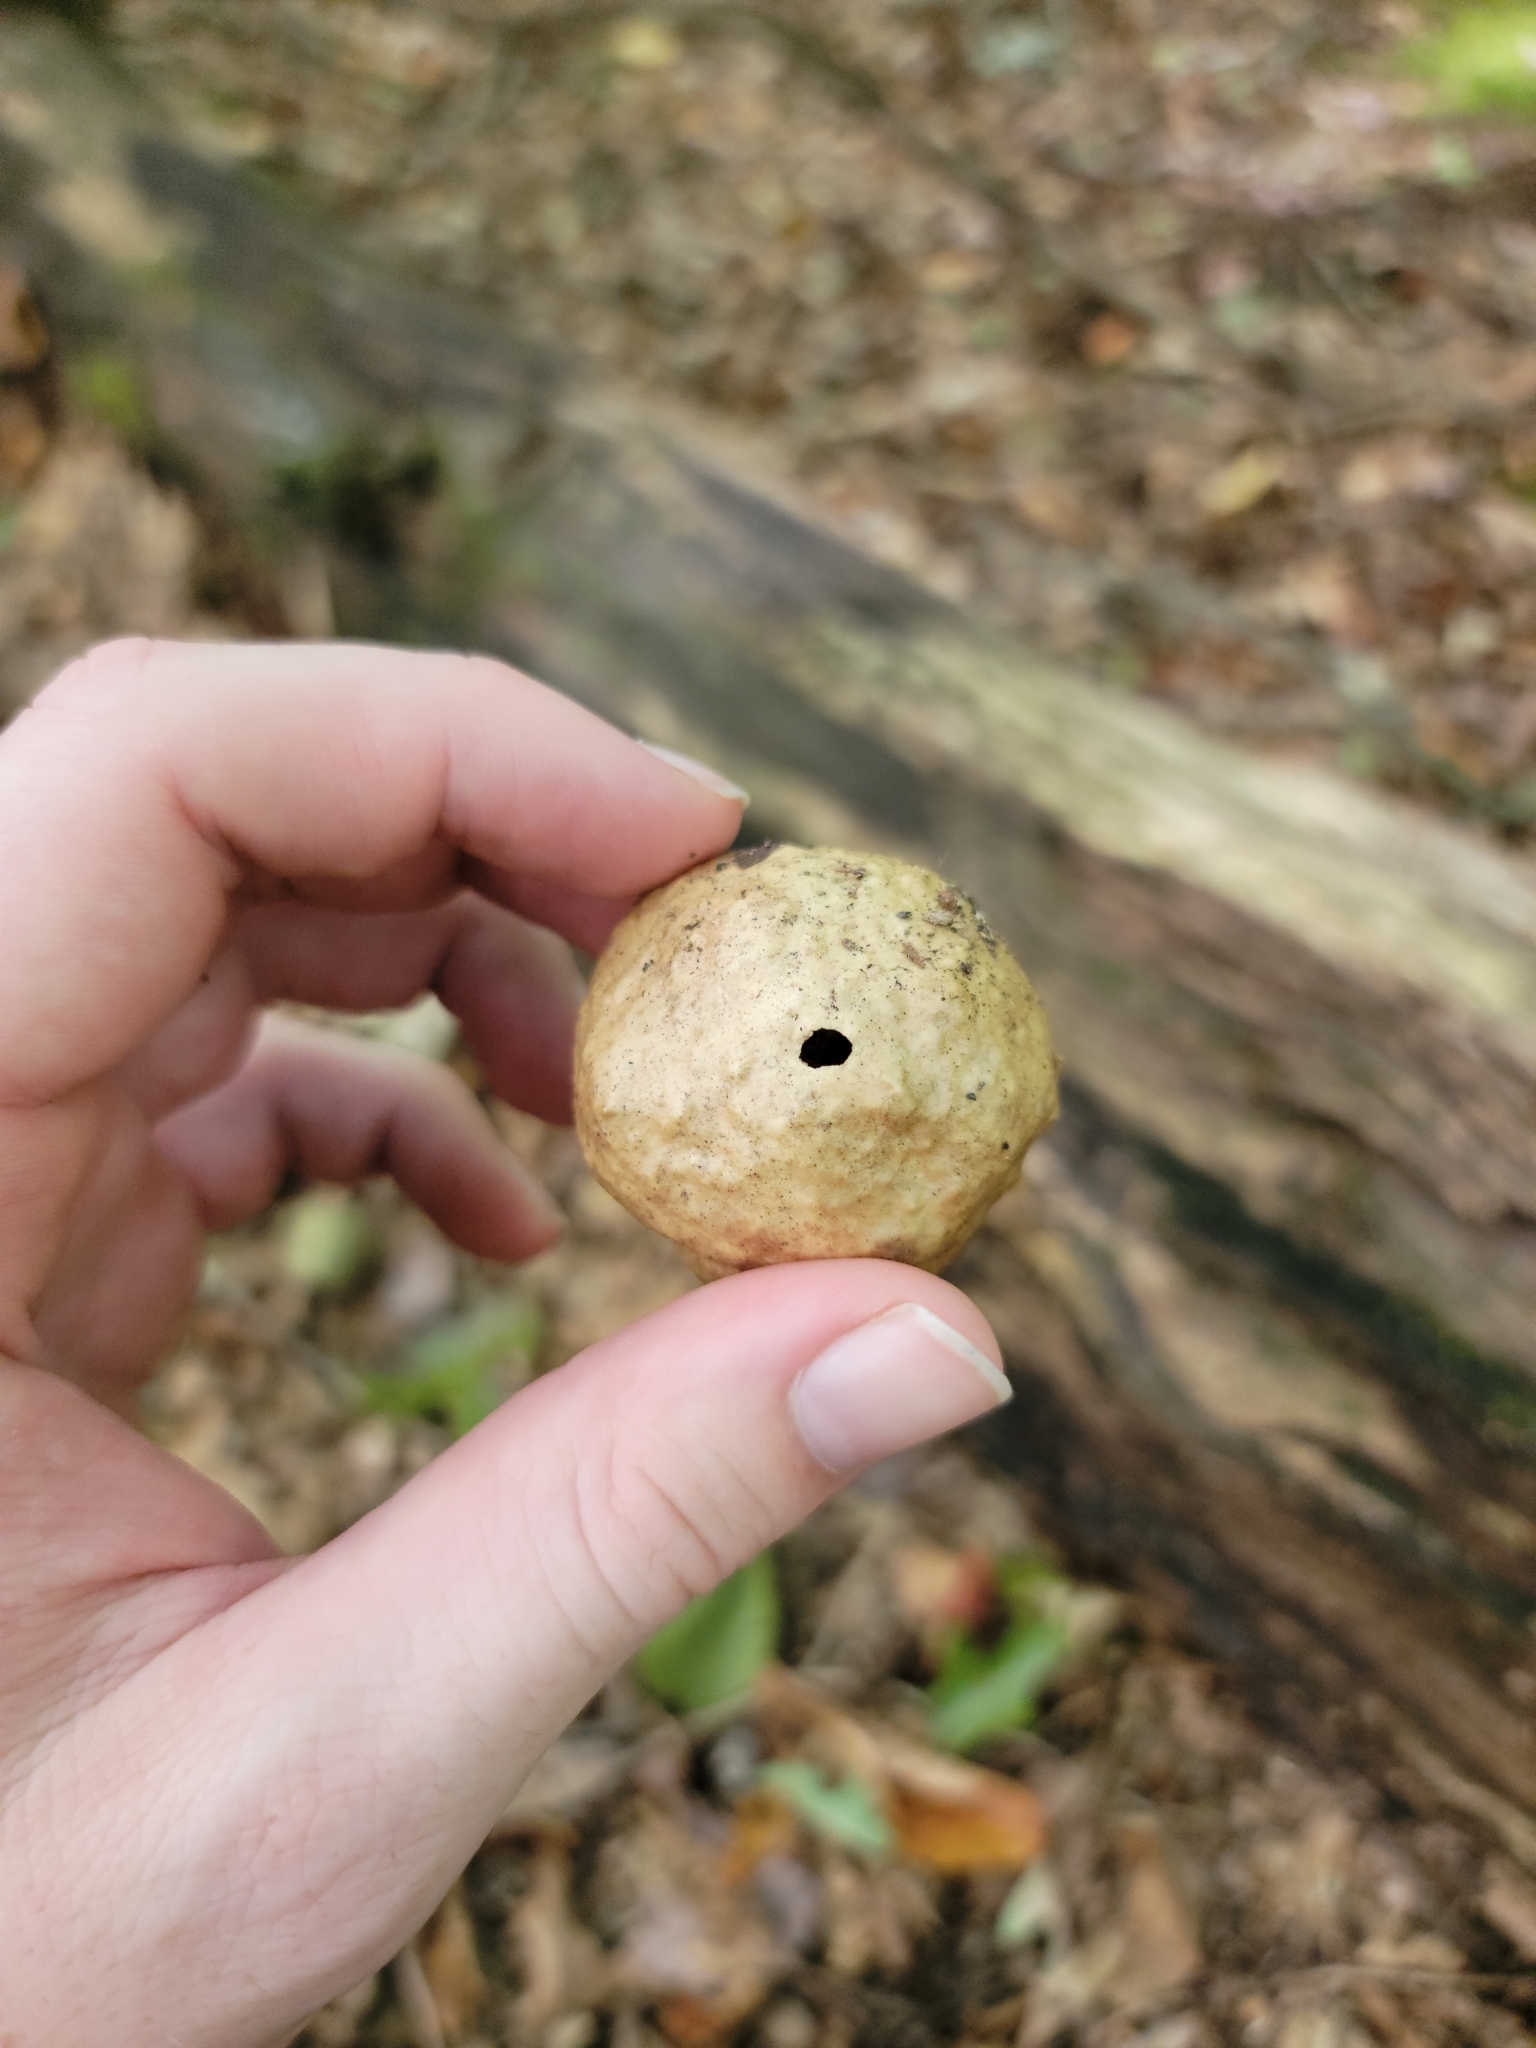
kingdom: Animalia
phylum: Arthropoda
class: Insecta
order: Hymenoptera
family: Cynipidae
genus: Amphibolips
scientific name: Amphibolips
